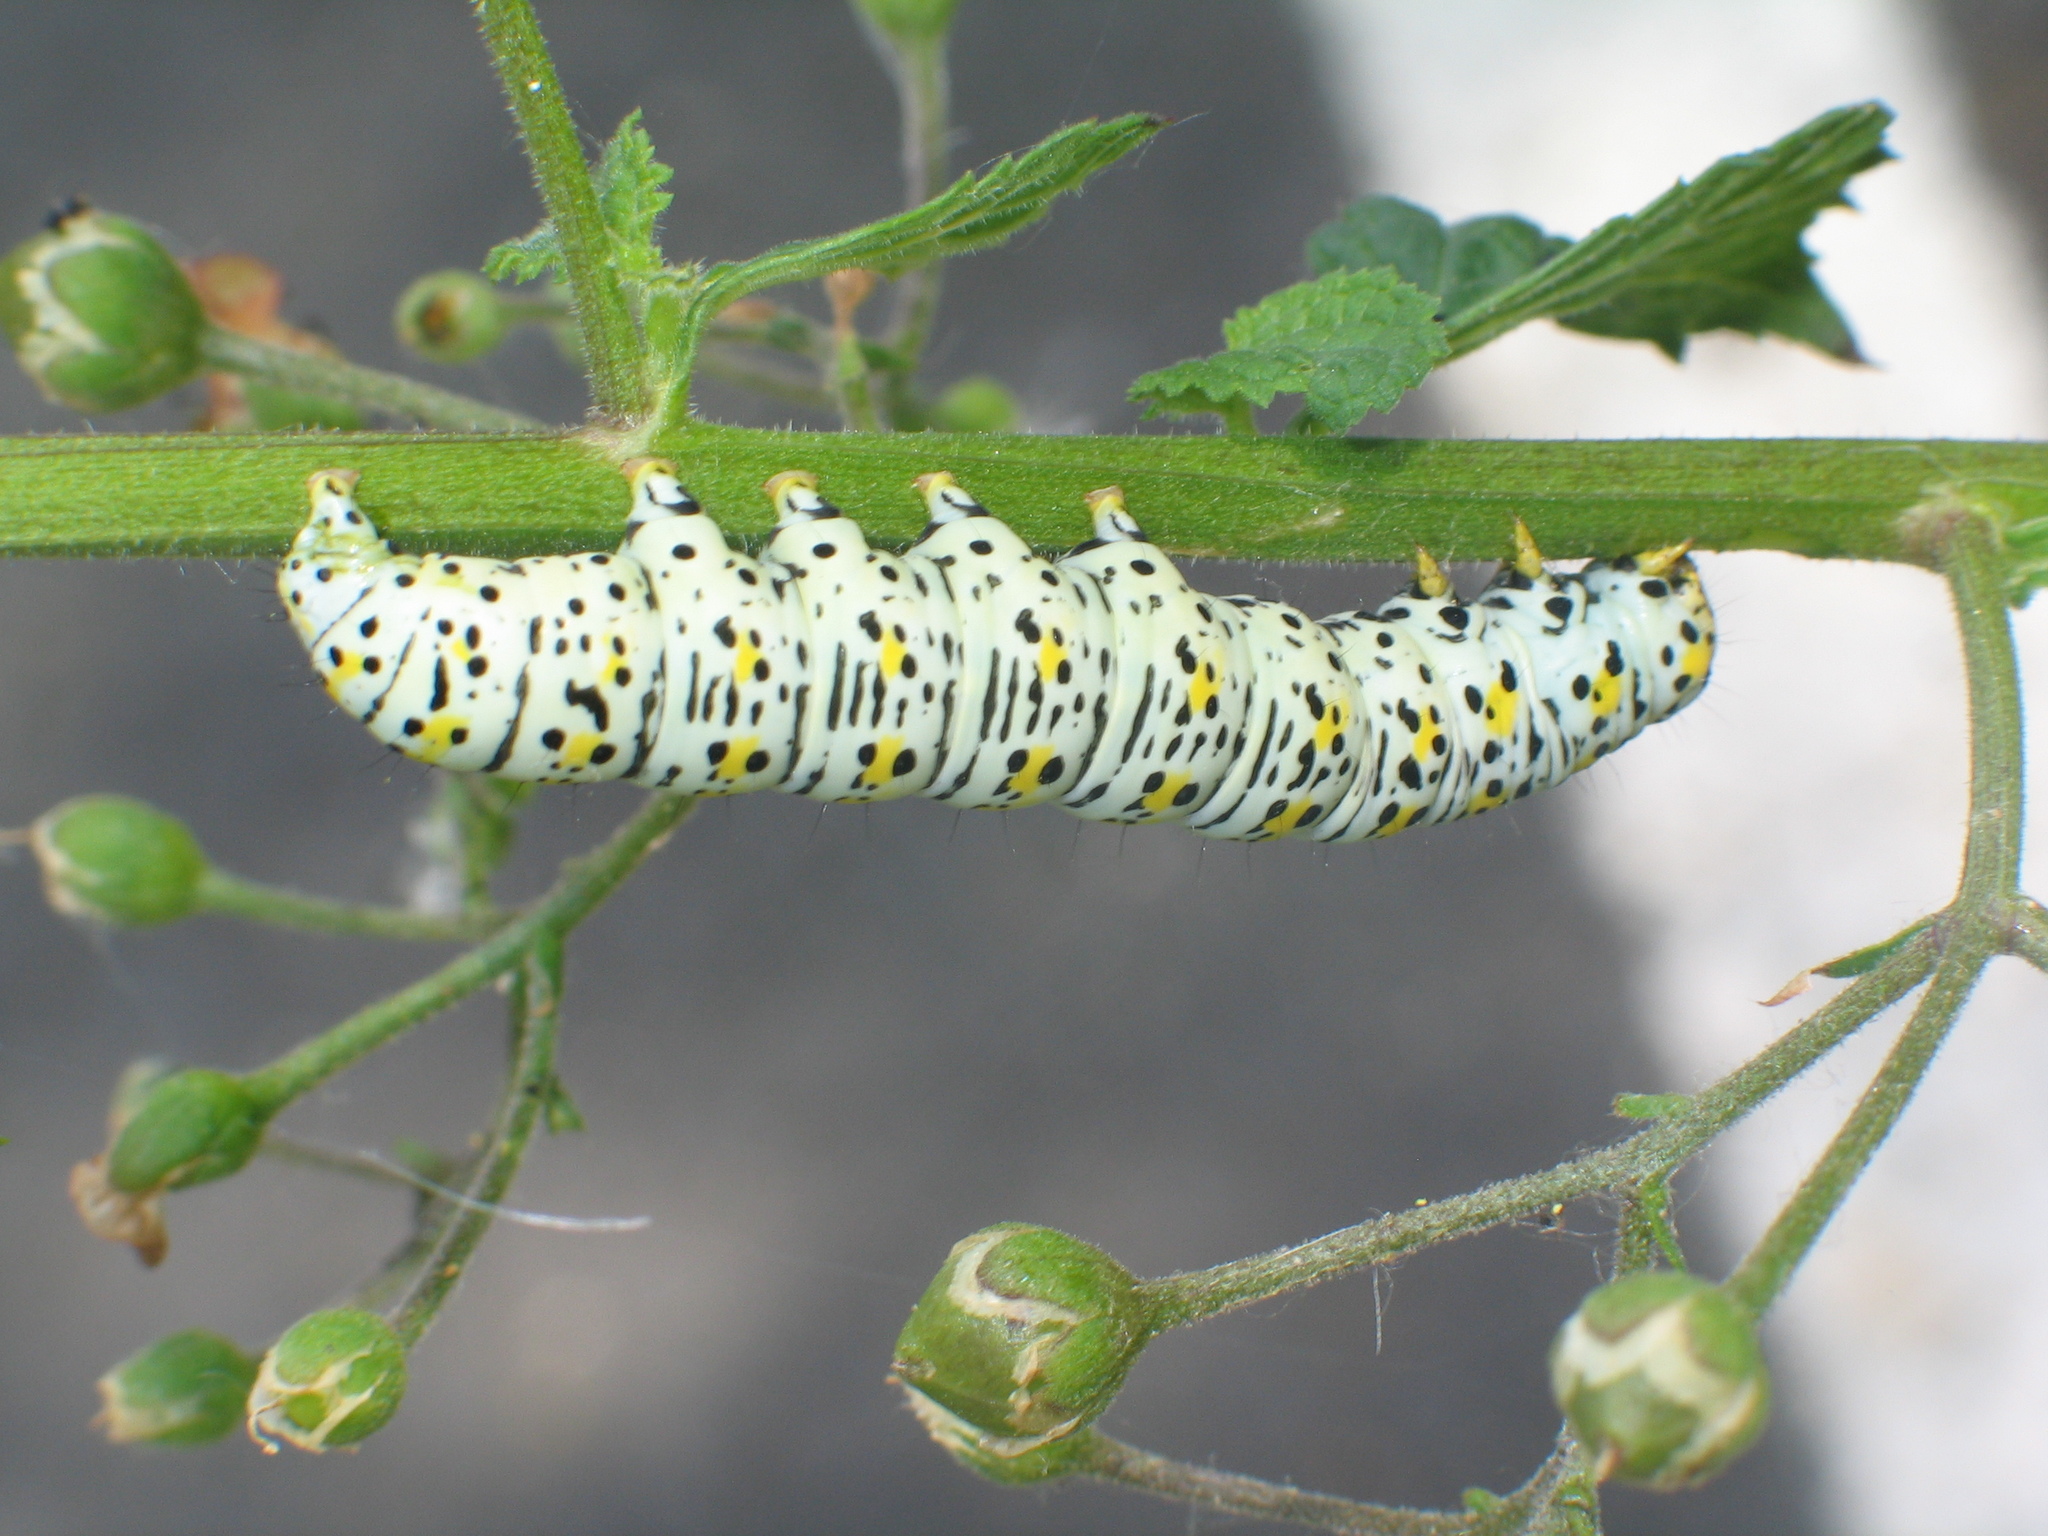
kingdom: Animalia
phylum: Arthropoda
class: Insecta
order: Lepidoptera
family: Noctuidae
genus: Cucullia
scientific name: Cucullia verbasci
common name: Mullein
